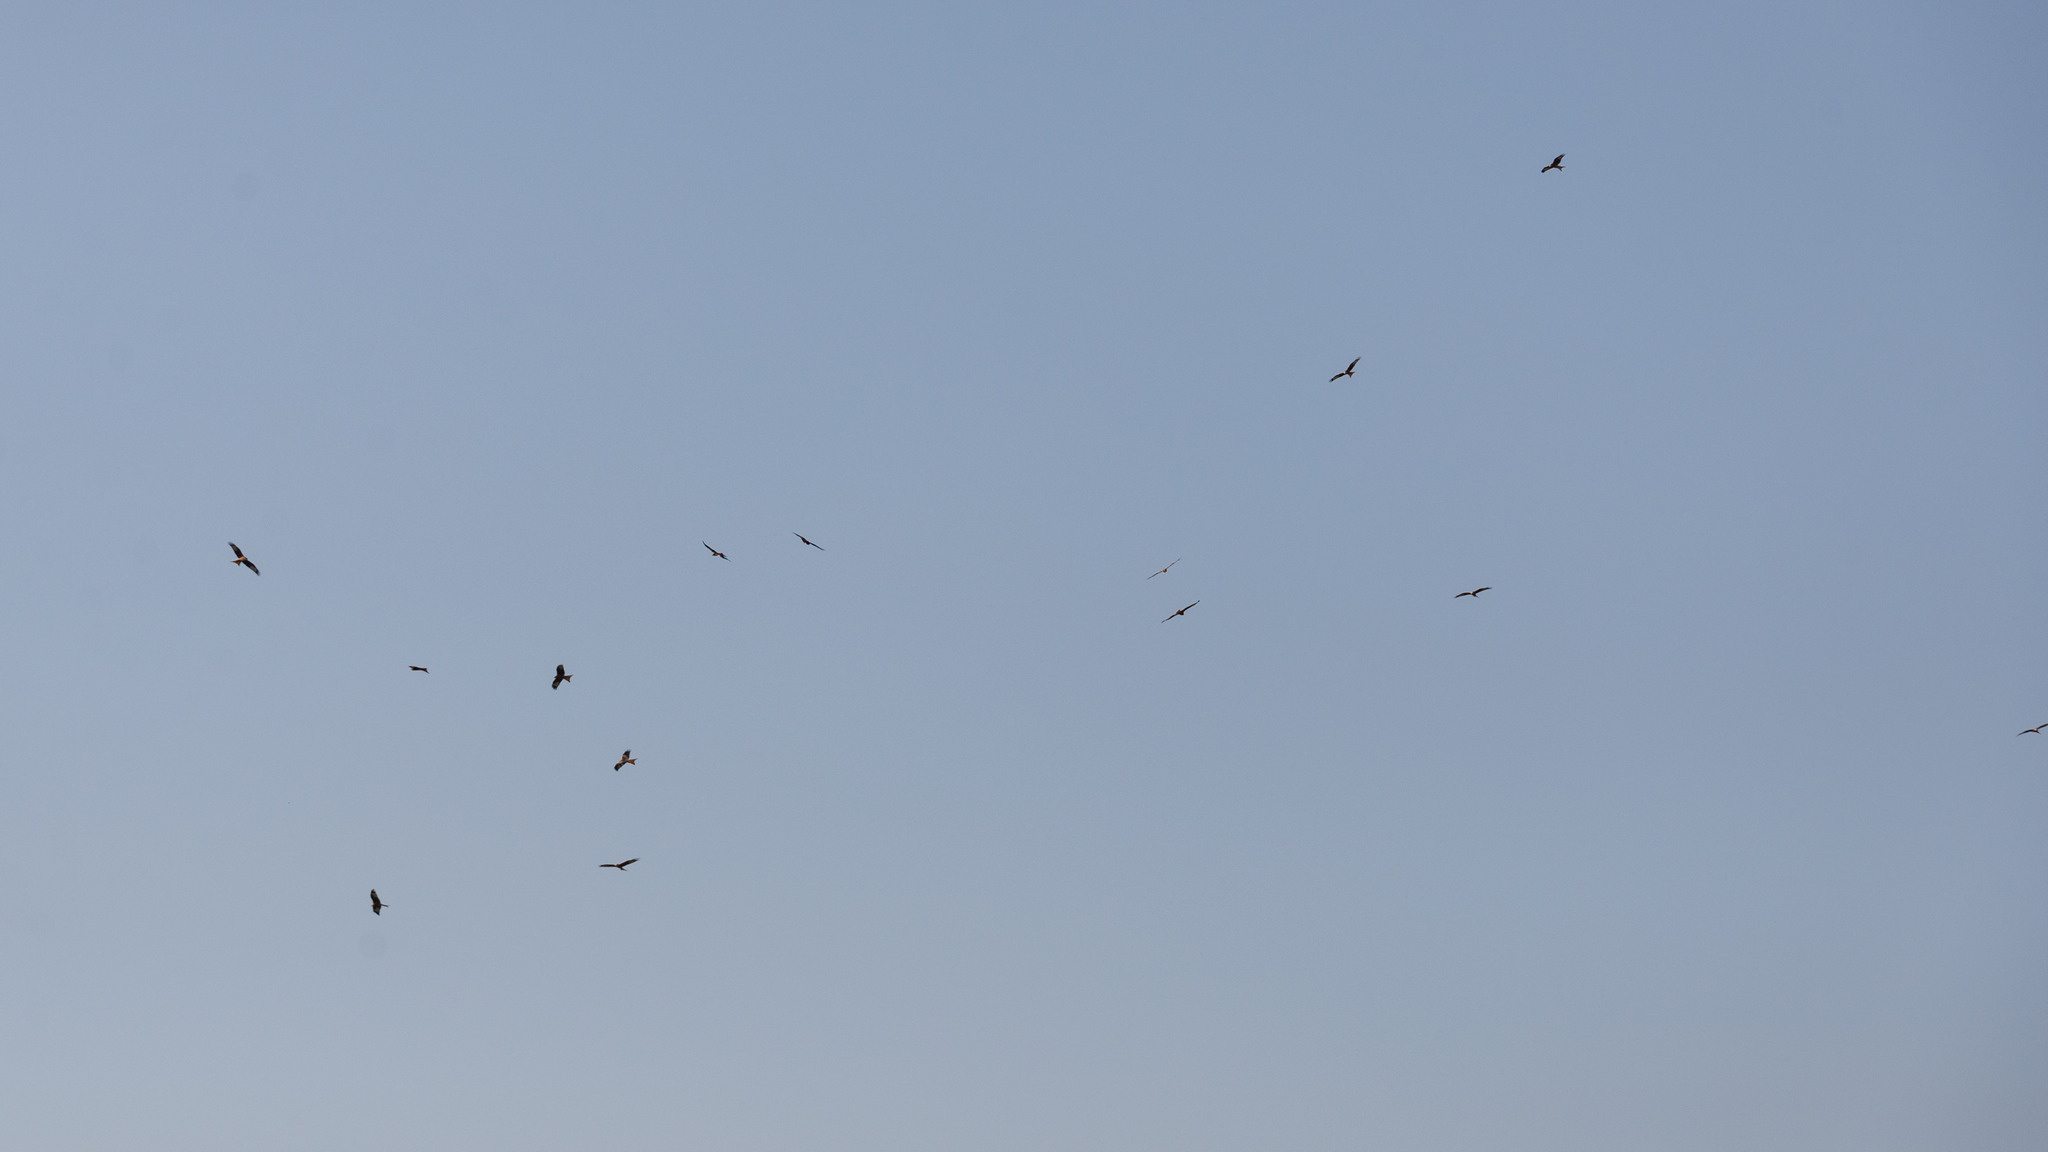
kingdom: Animalia
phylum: Chordata
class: Aves
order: Accipitriformes
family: Accipitridae
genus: Milvus
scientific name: Milvus milvus
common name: Red kite
